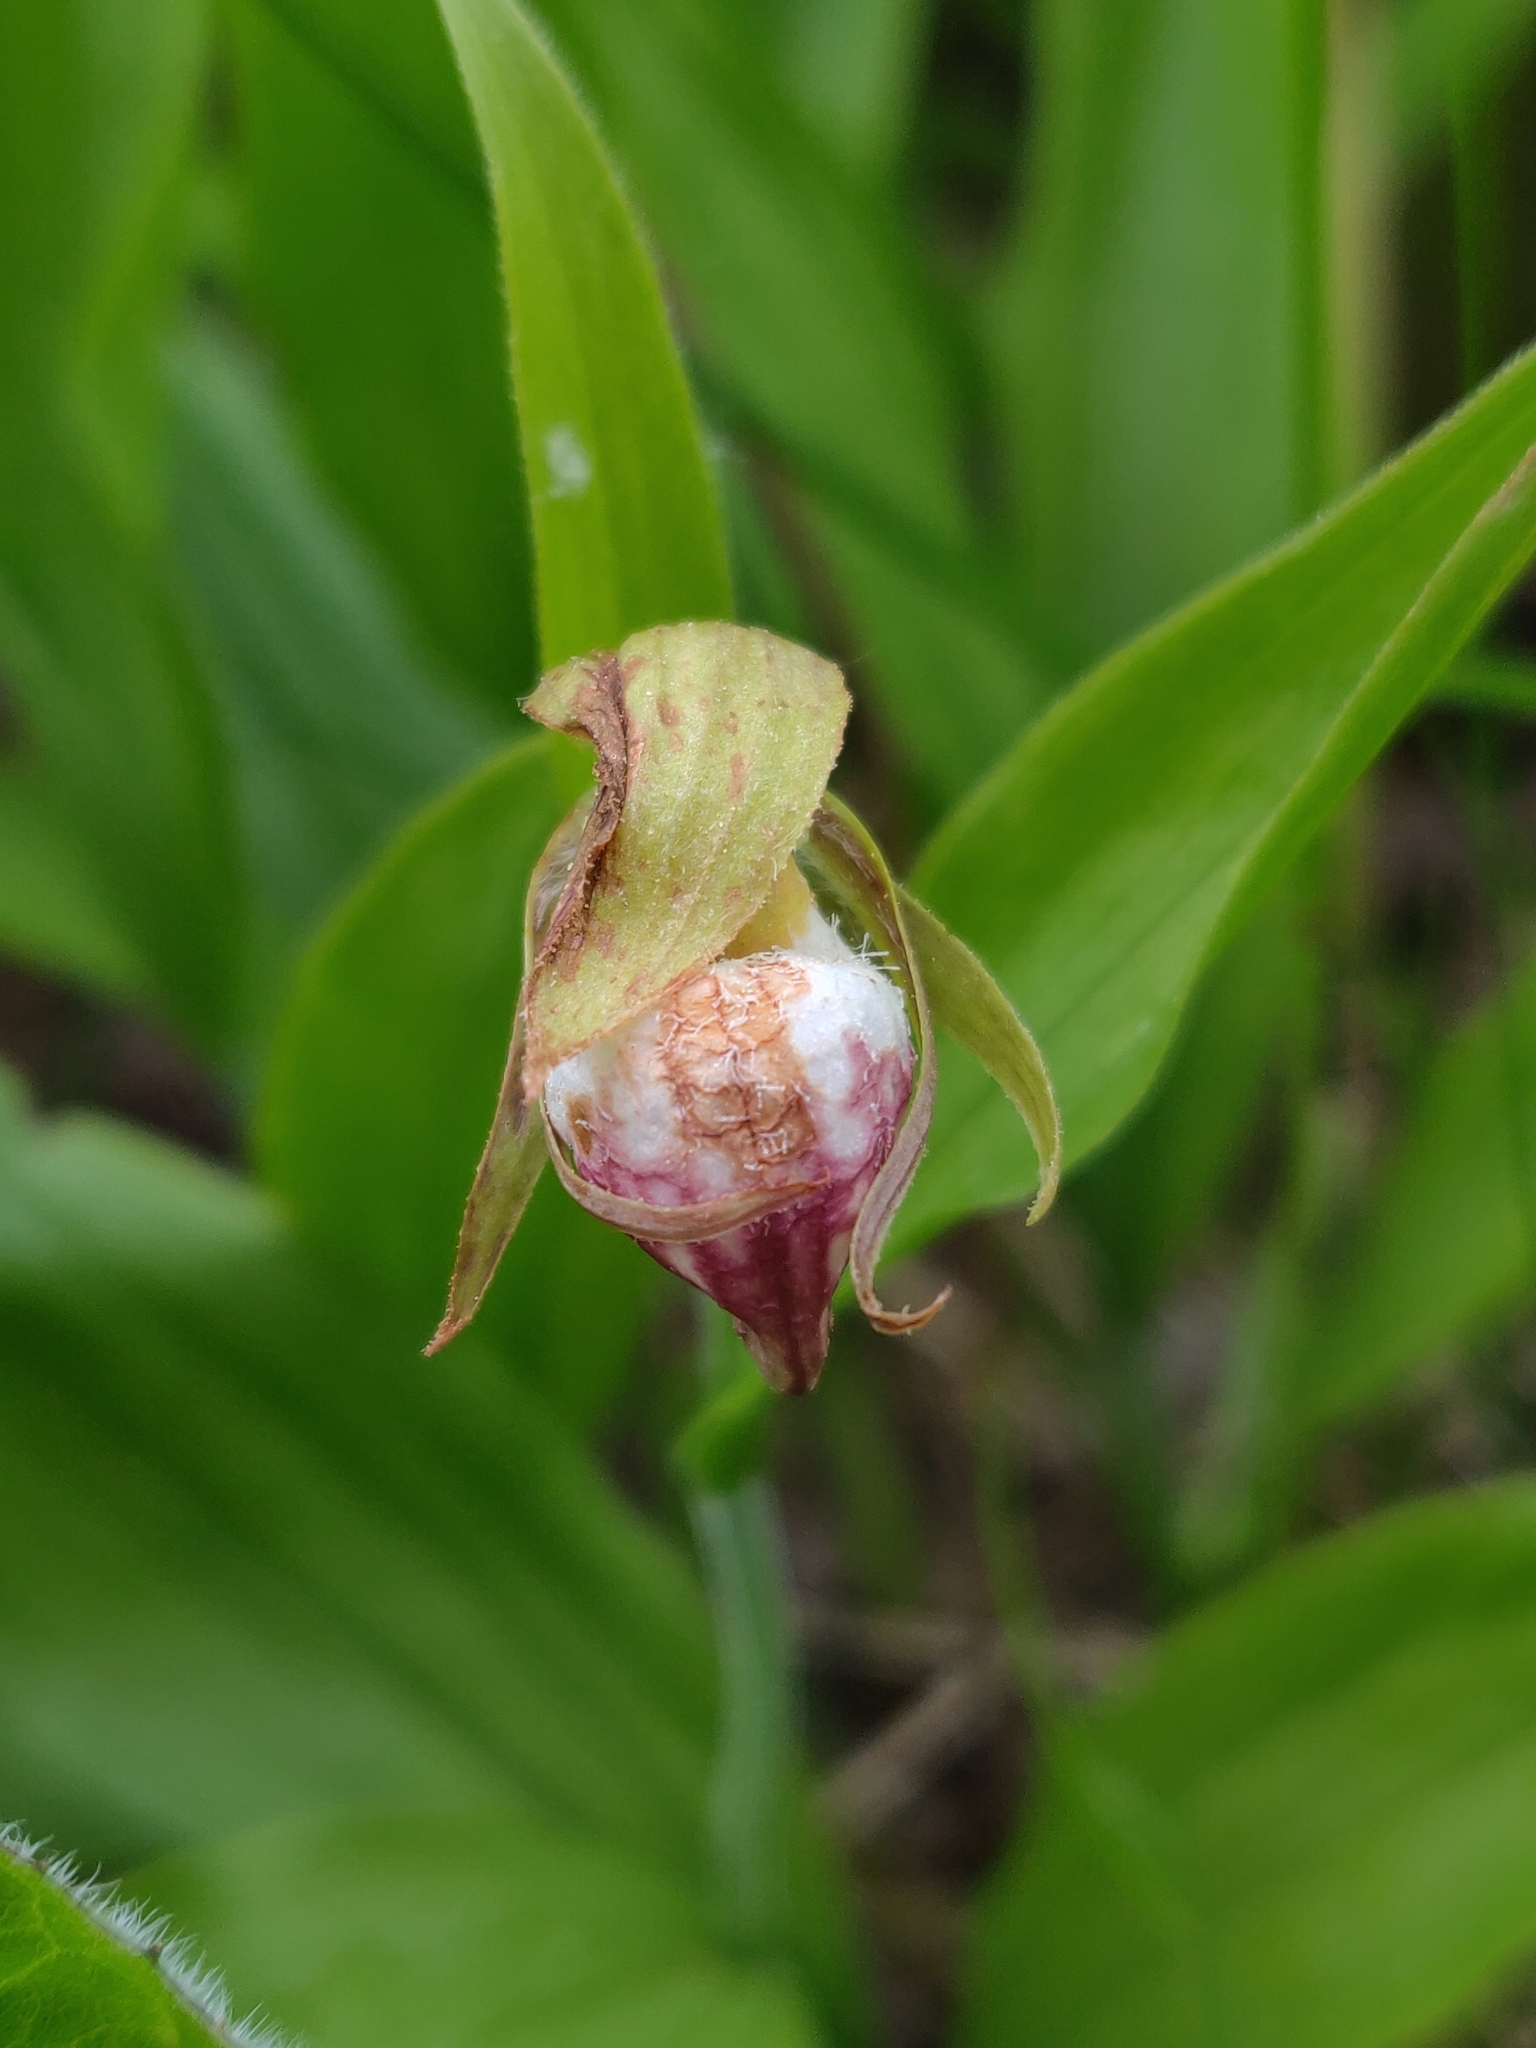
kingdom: Plantae
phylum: Tracheophyta
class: Liliopsida
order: Asparagales
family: Orchidaceae
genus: Cypripedium
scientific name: Cypripedium arietinum
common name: Ram's-head
